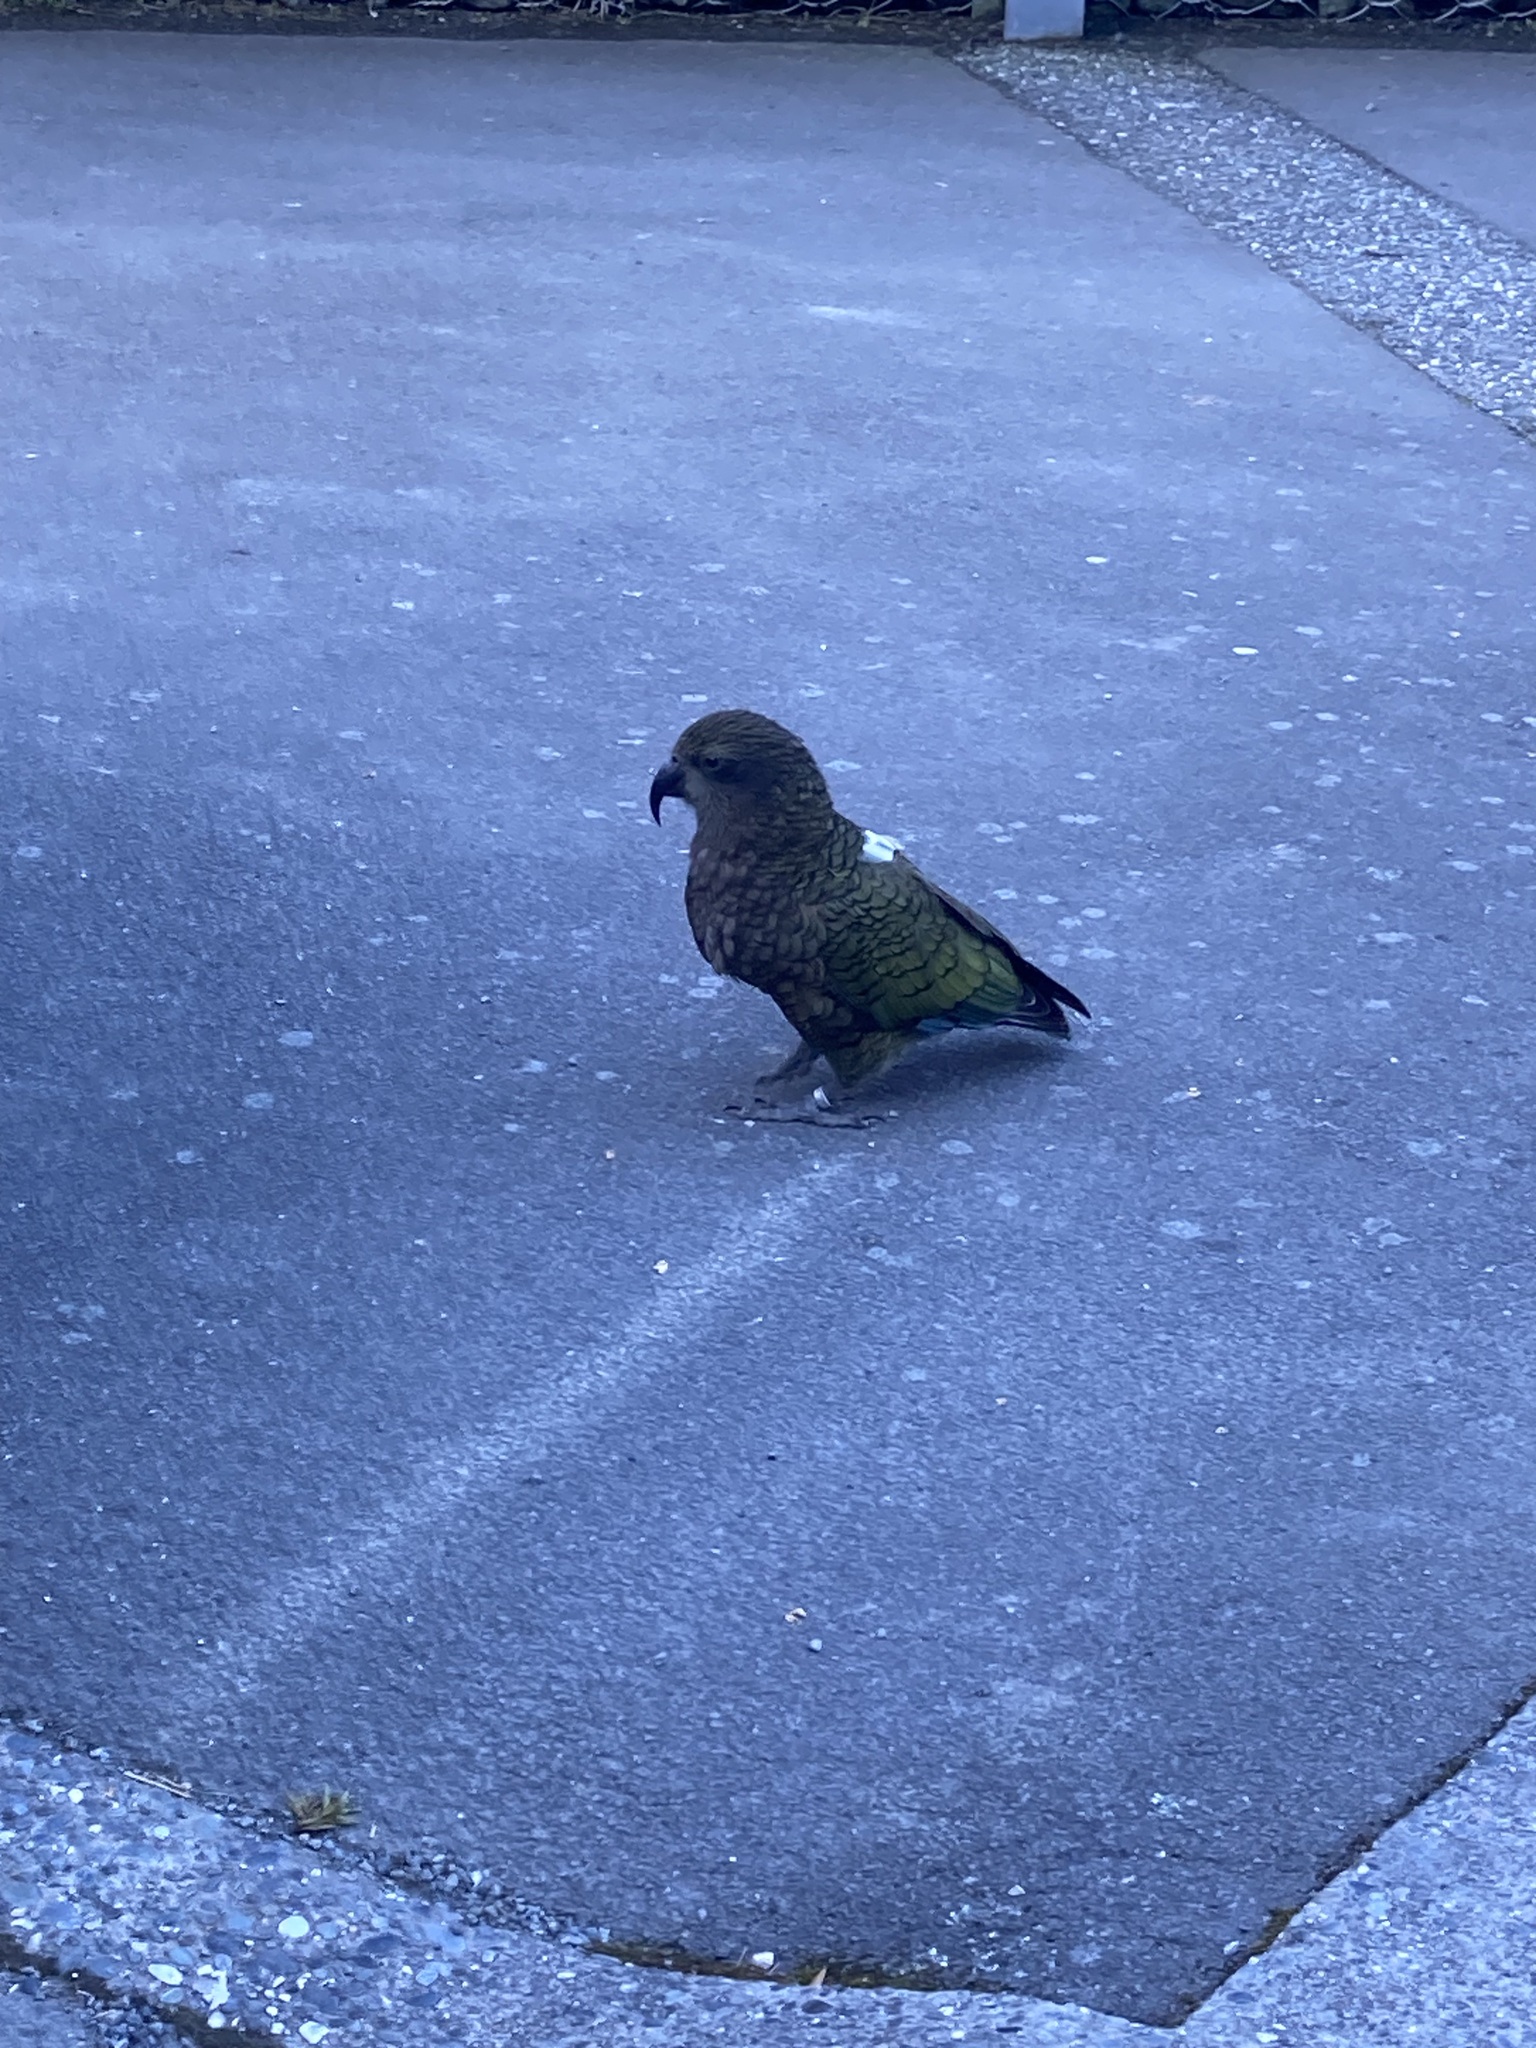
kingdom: Animalia
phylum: Chordata
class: Aves
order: Psittaciformes
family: Psittacidae
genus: Nestor
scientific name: Nestor notabilis
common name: Kea
